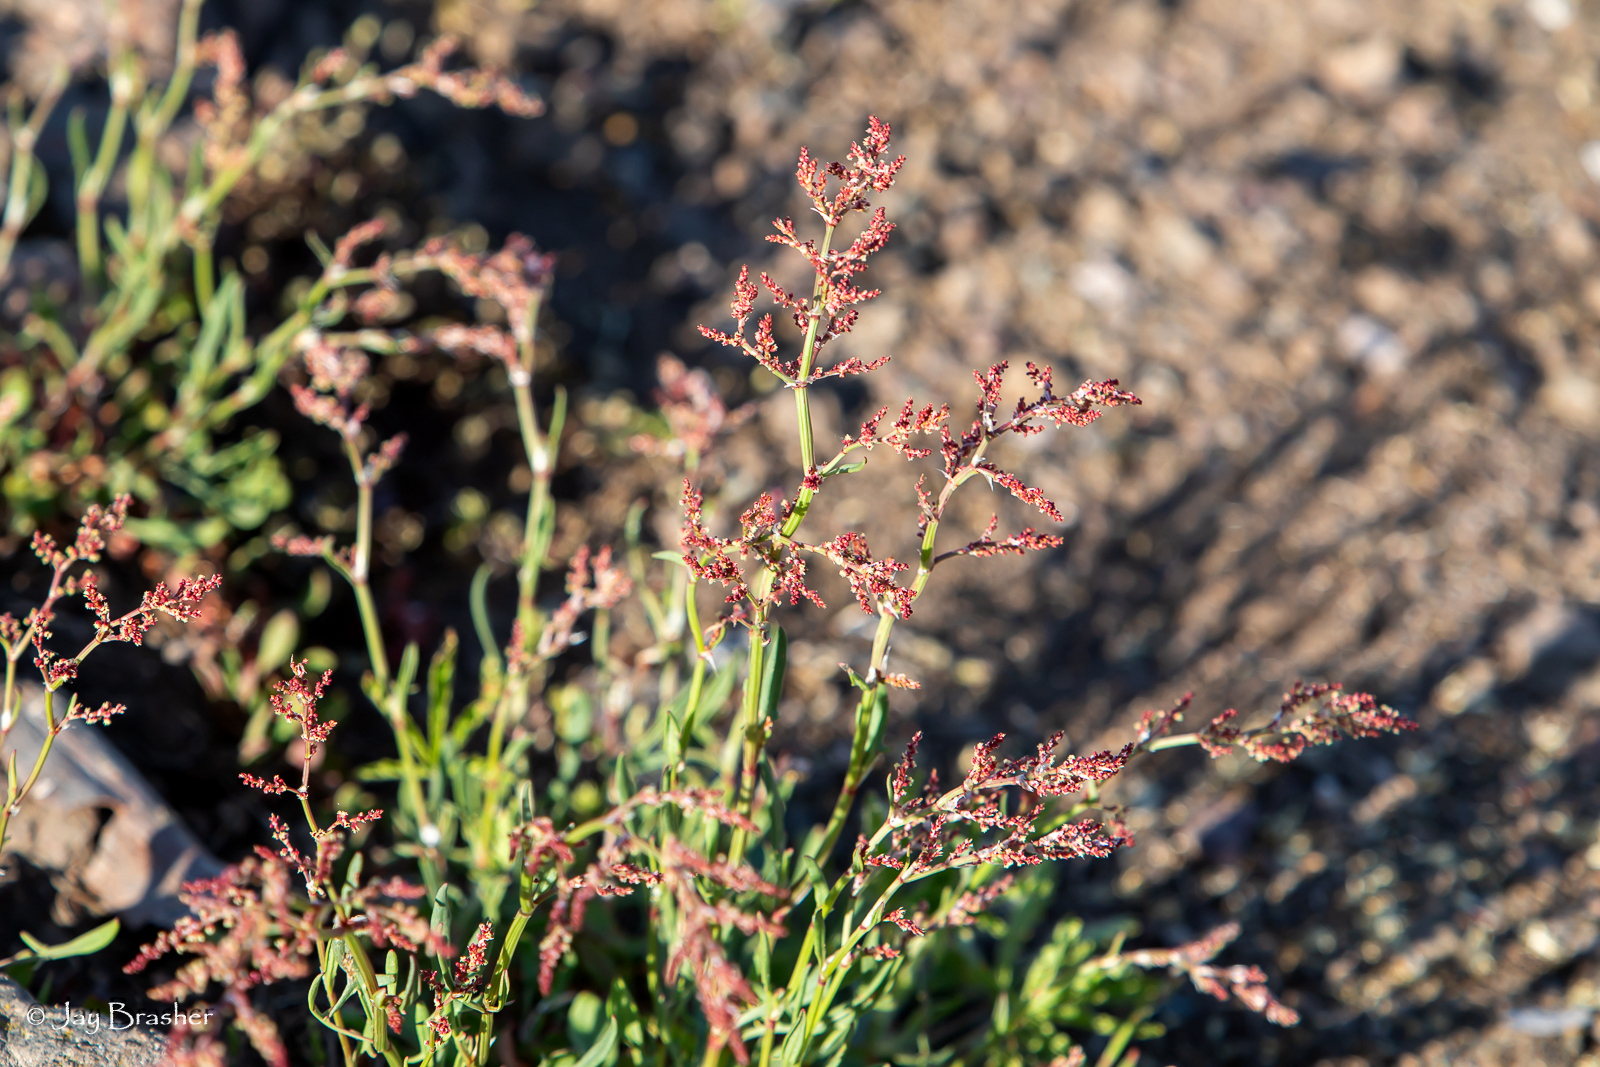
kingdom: Plantae
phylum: Tracheophyta
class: Magnoliopsida
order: Caryophyllales
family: Polygonaceae
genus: Rumex
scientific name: Rumex acetosella
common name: Common sheep sorrel
